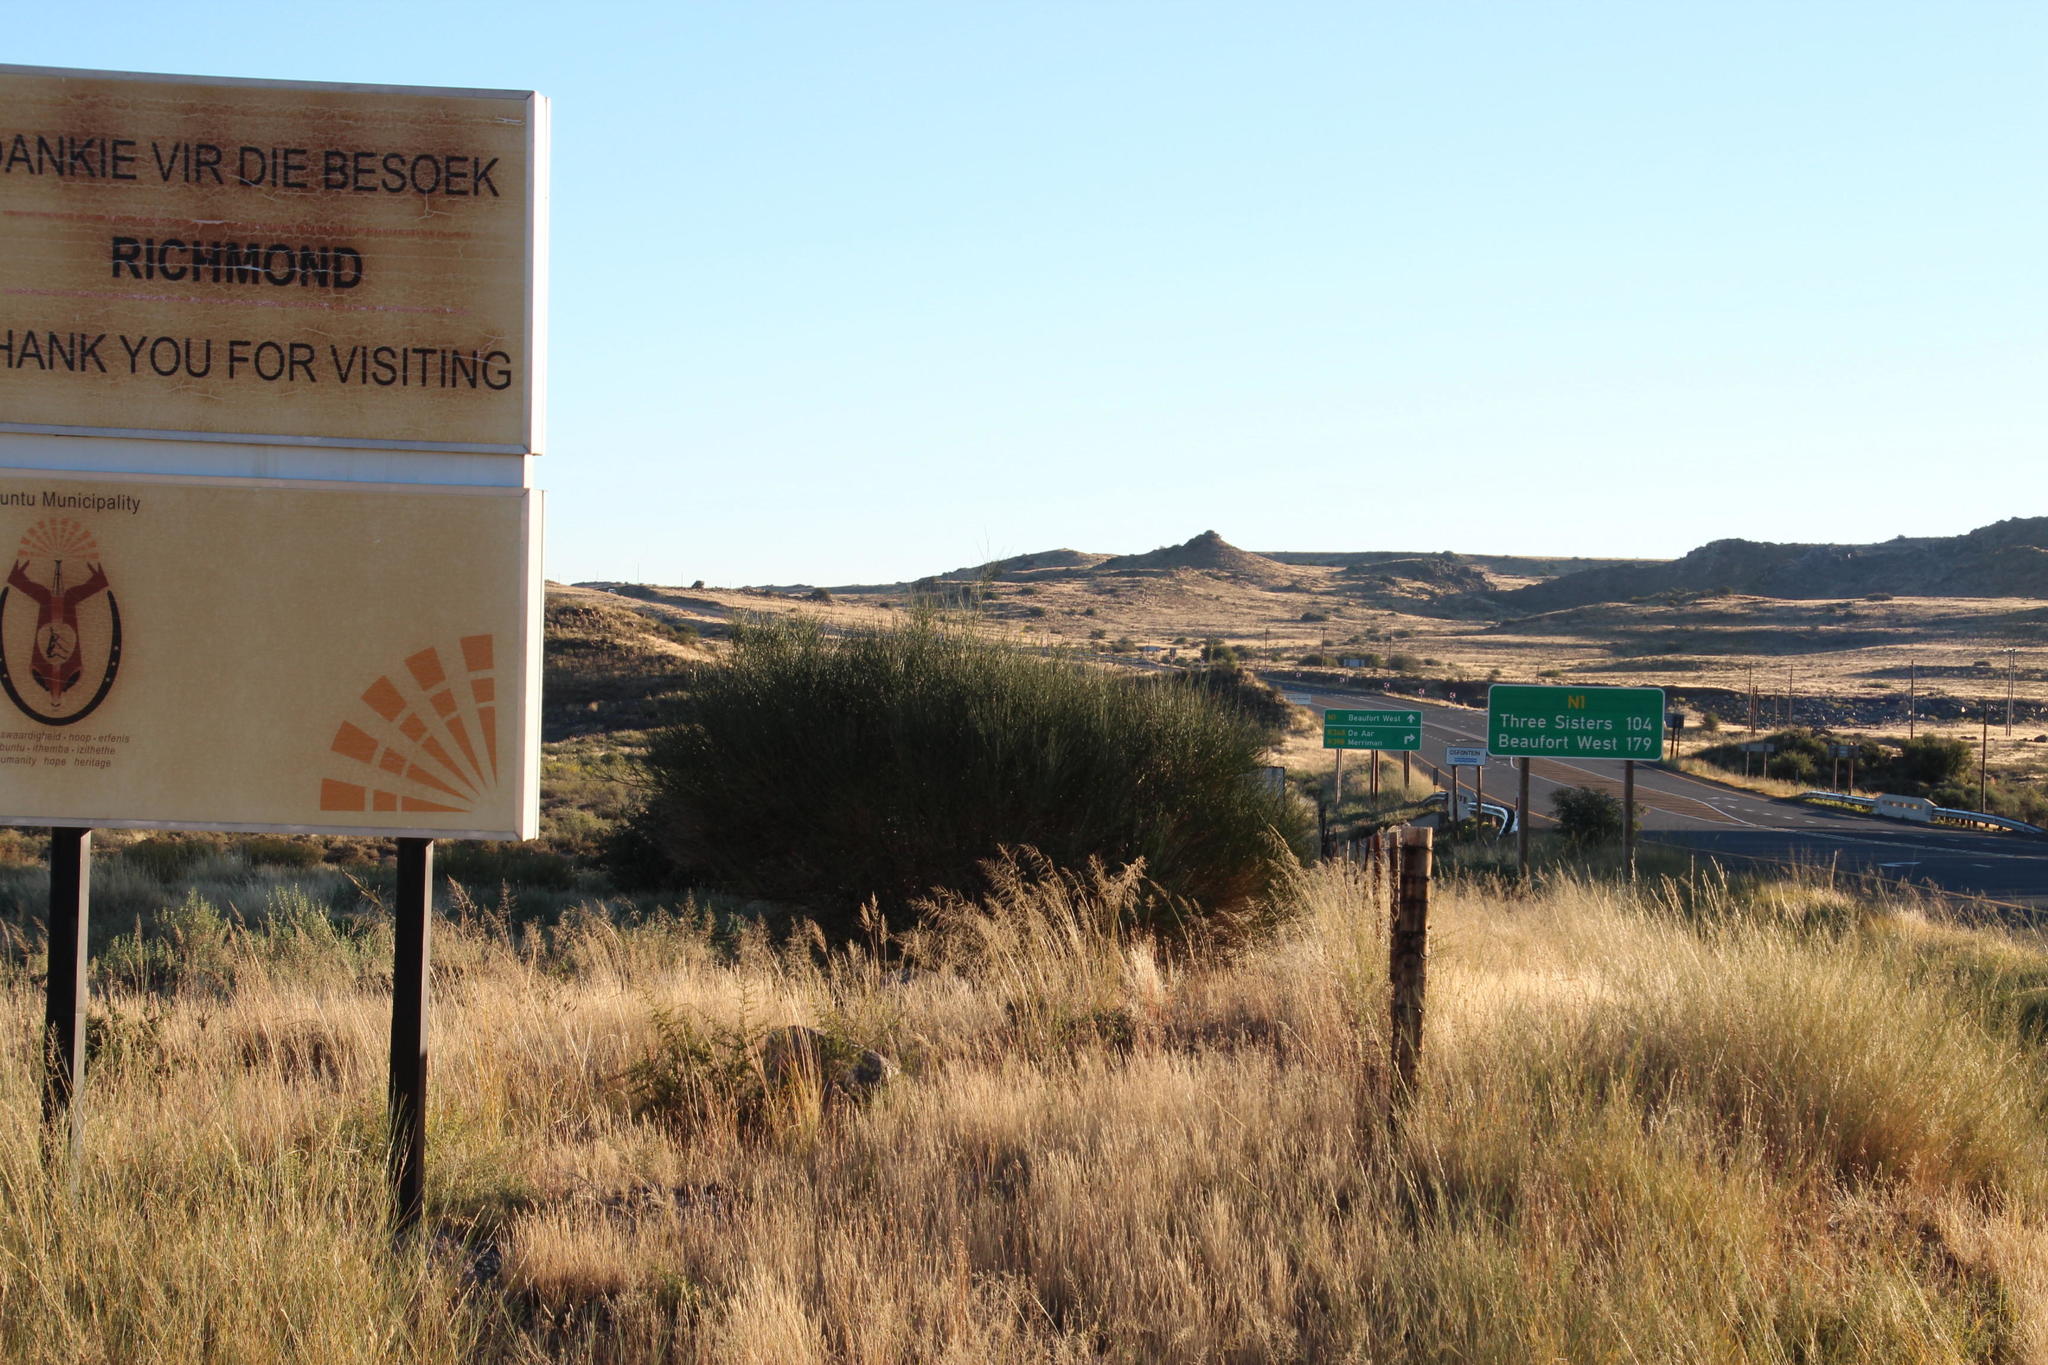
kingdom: Plantae
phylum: Tracheophyta
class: Magnoliopsida
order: Fabales
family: Fabaceae
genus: Spartium
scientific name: Spartium junceum
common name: Spanish broom
